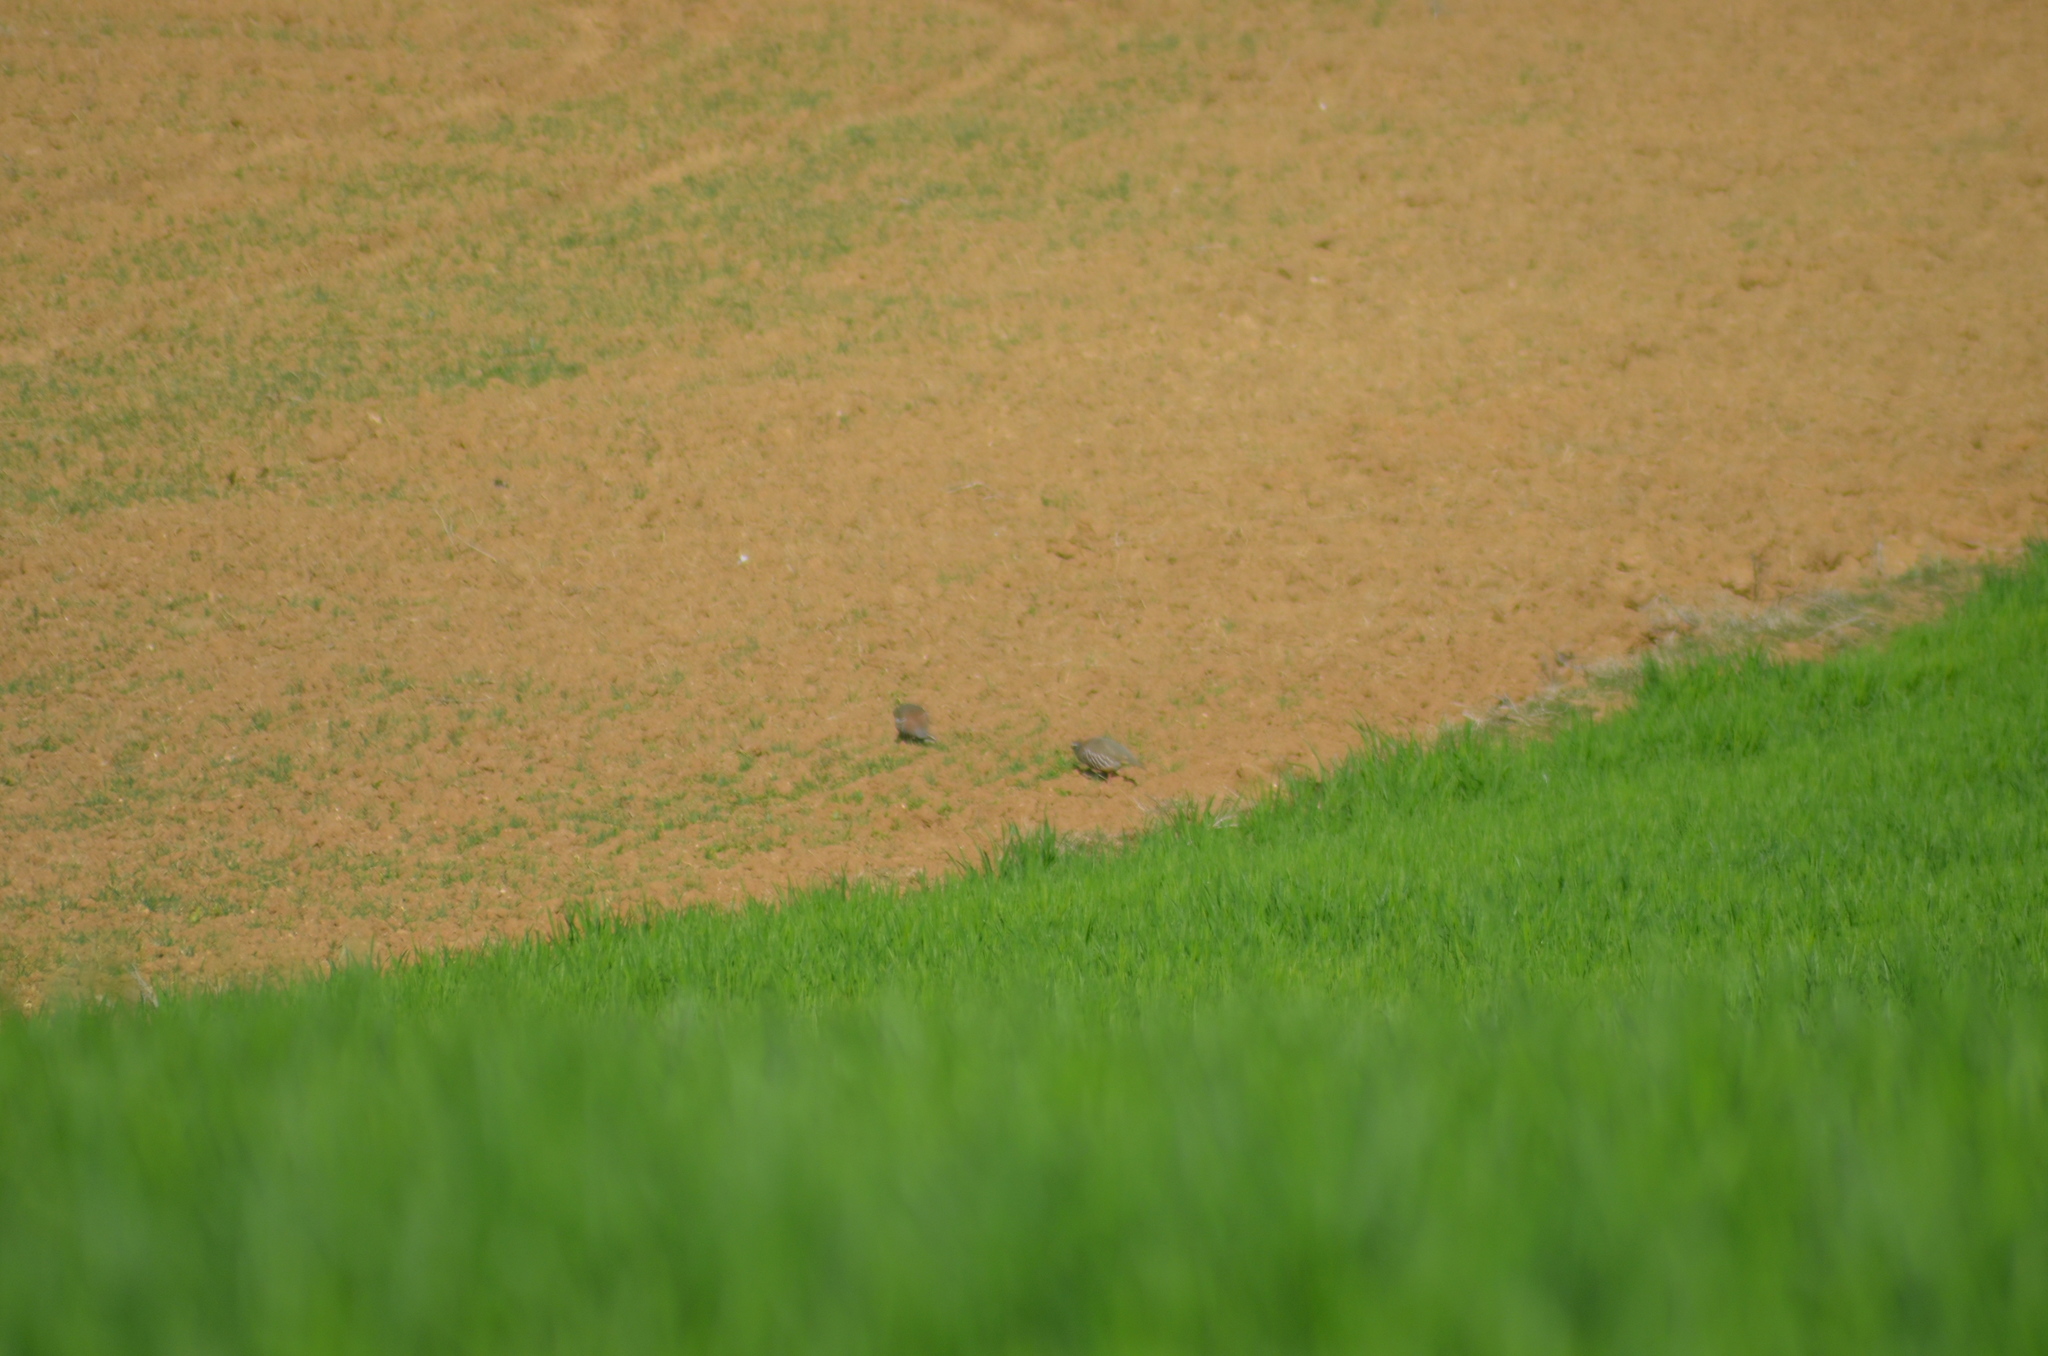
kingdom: Animalia
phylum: Chordata
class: Aves
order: Galliformes
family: Phasianidae
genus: Alectoris
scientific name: Alectoris rufa
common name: Red-legged partridge
